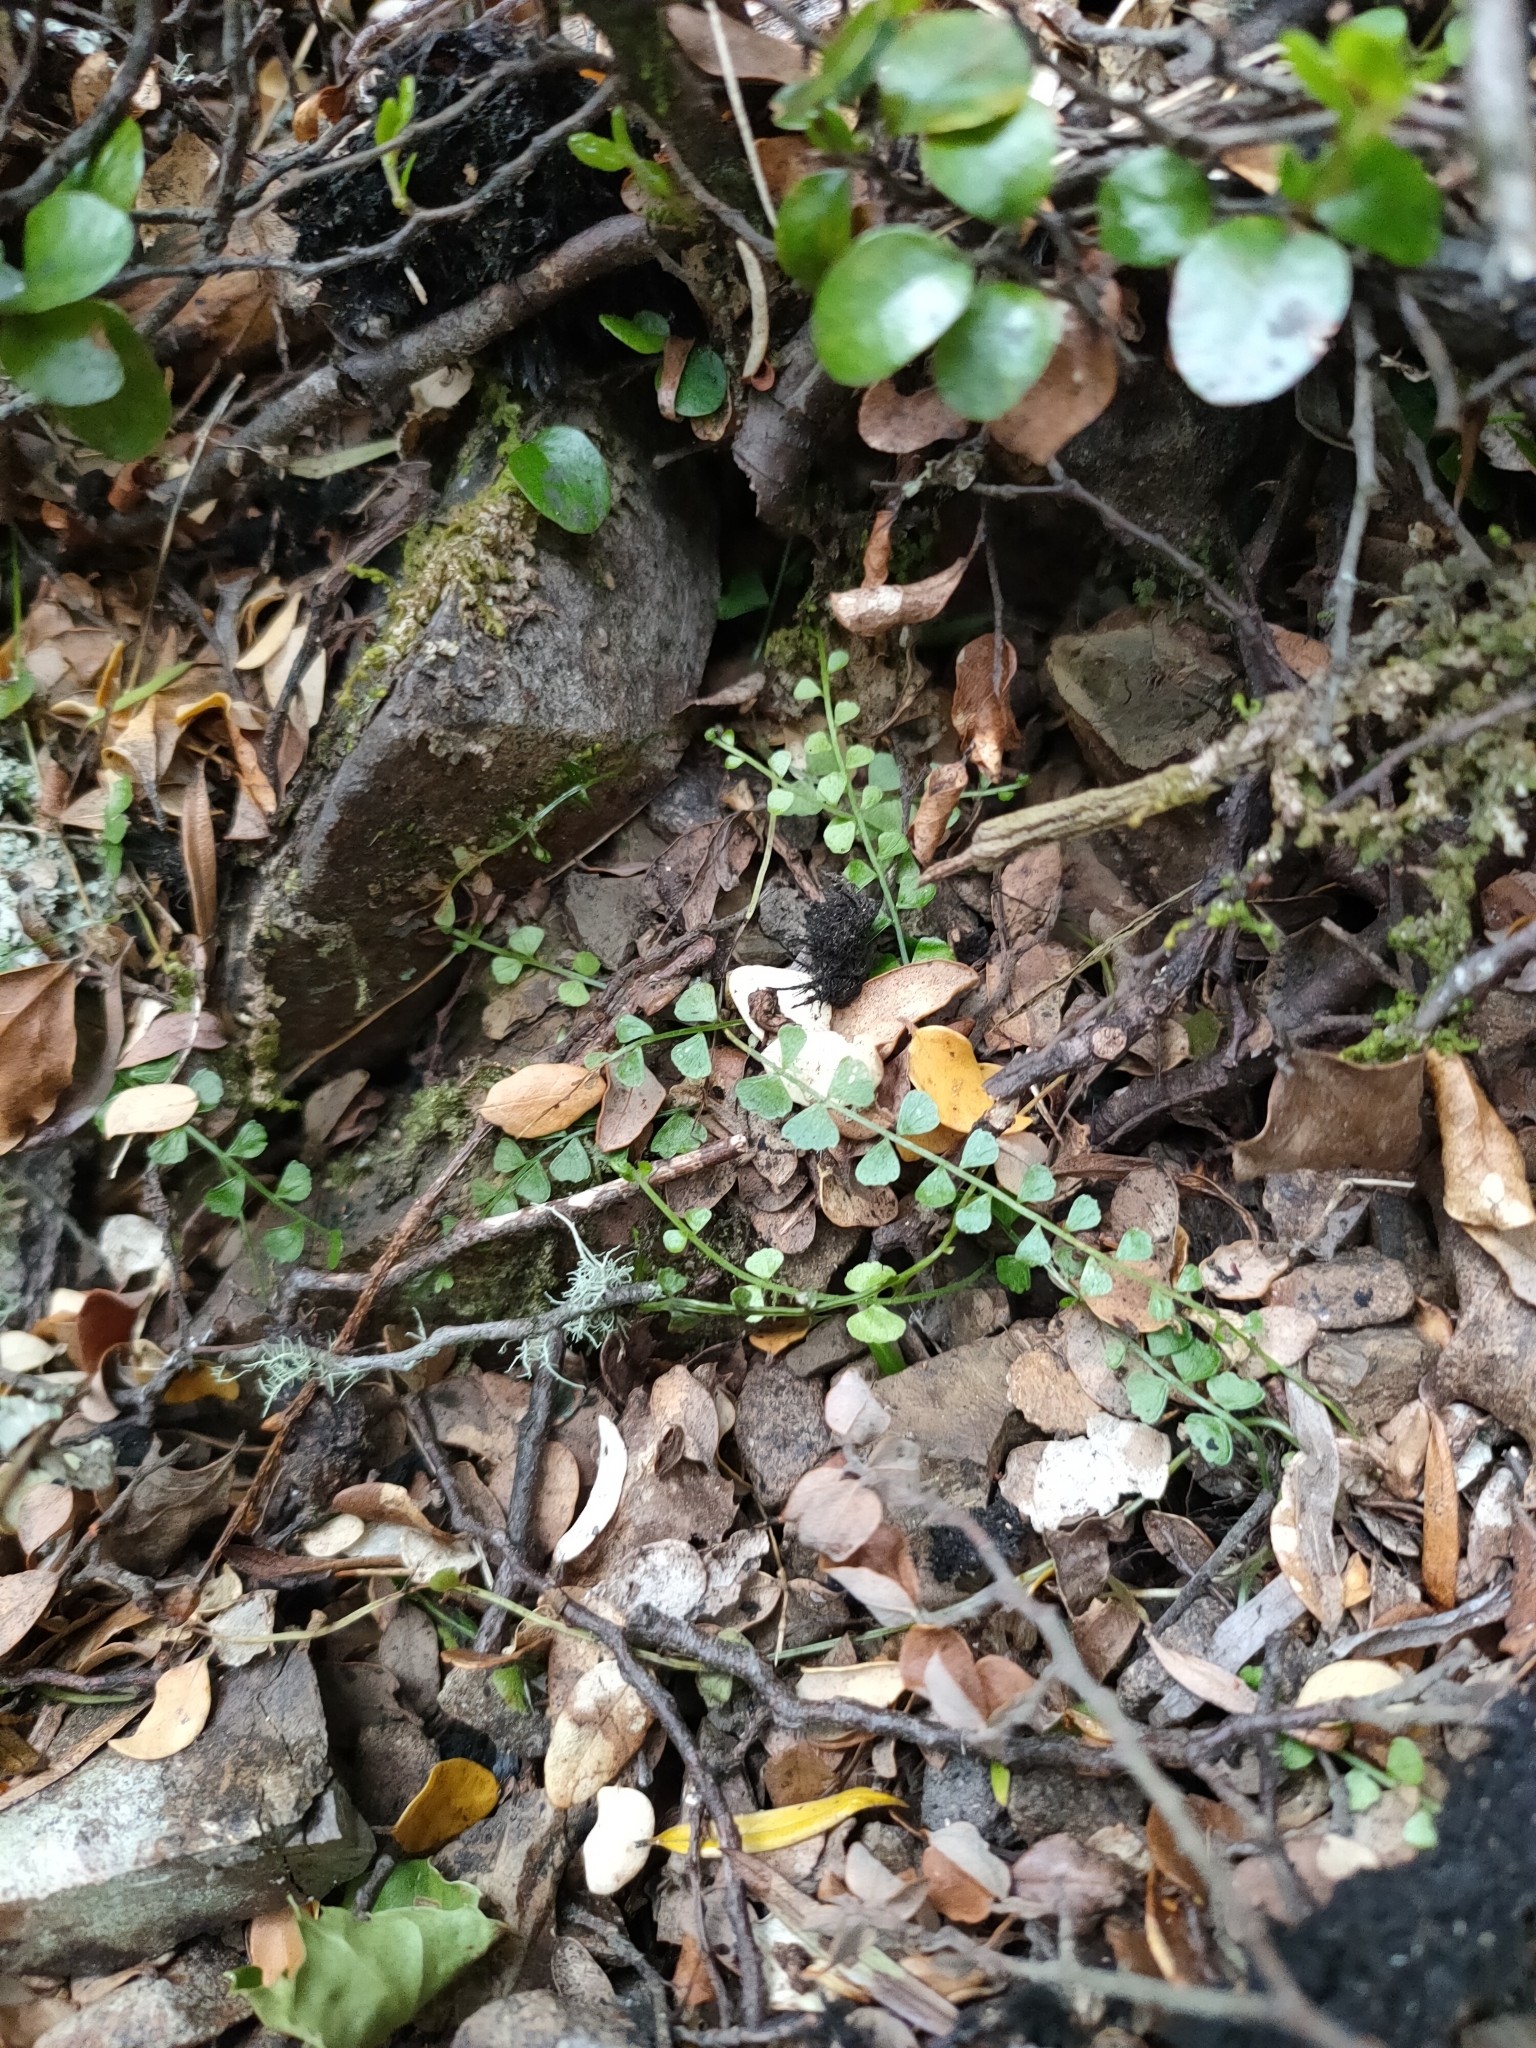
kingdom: Plantae
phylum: Tracheophyta
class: Polypodiopsida
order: Polypodiales
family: Aspleniaceae
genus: Asplenium
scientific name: Asplenium flabellifolium
